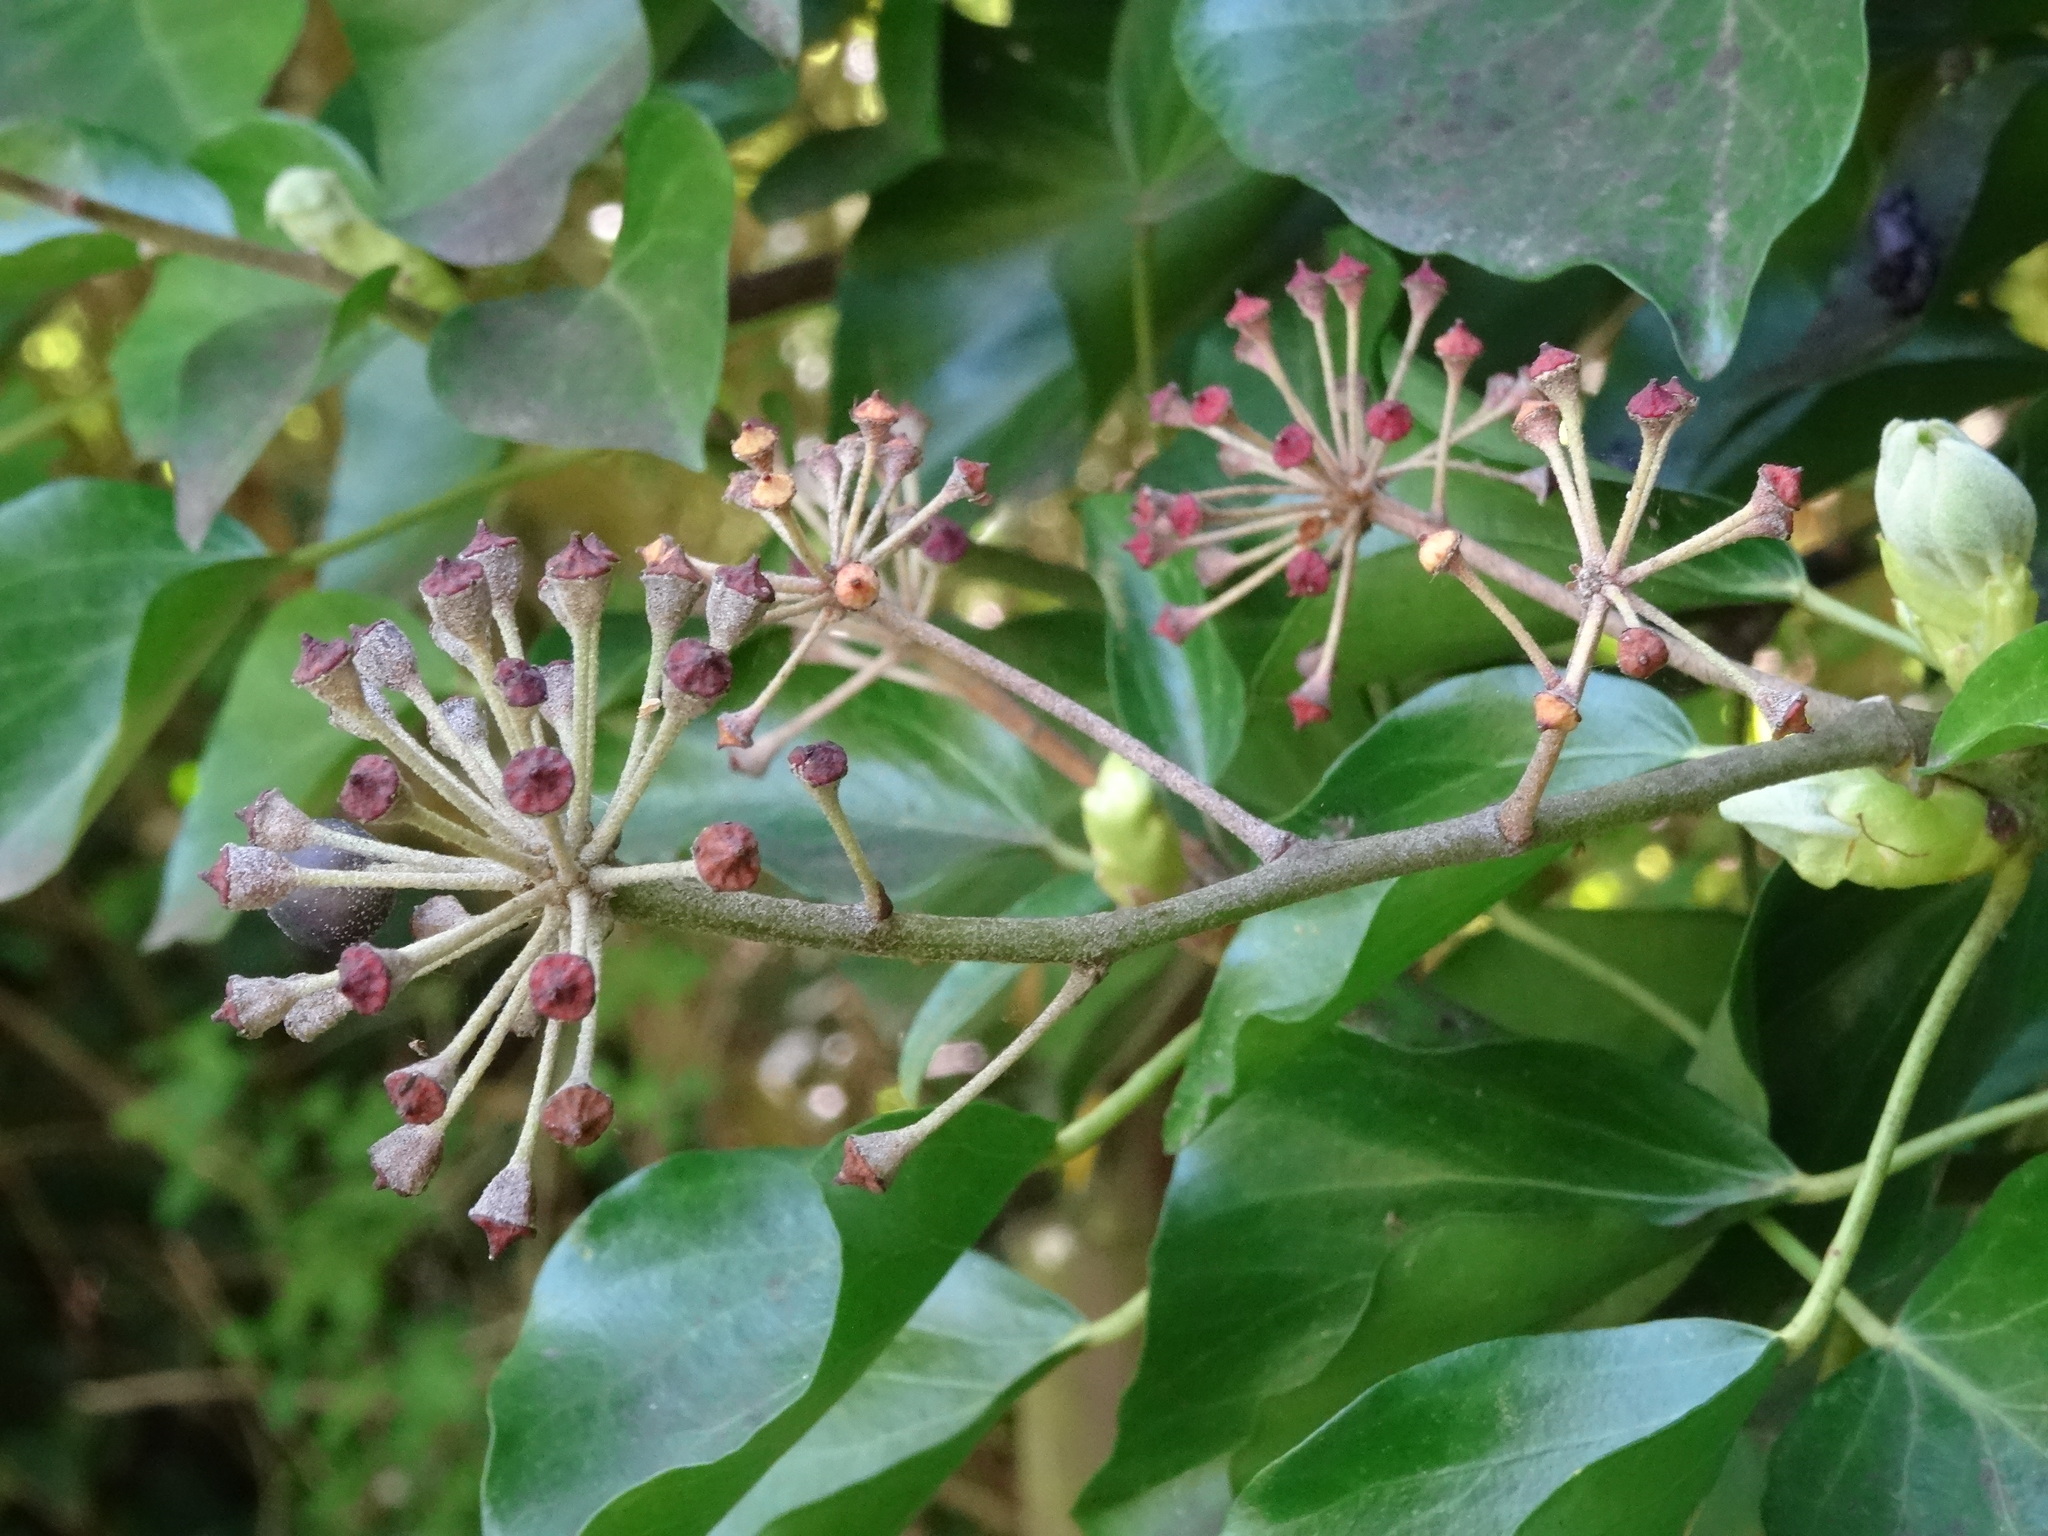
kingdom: Plantae
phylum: Tracheophyta
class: Magnoliopsida
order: Apiales
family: Araliaceae
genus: Hedera
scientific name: Hedera helix
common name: Ivy
